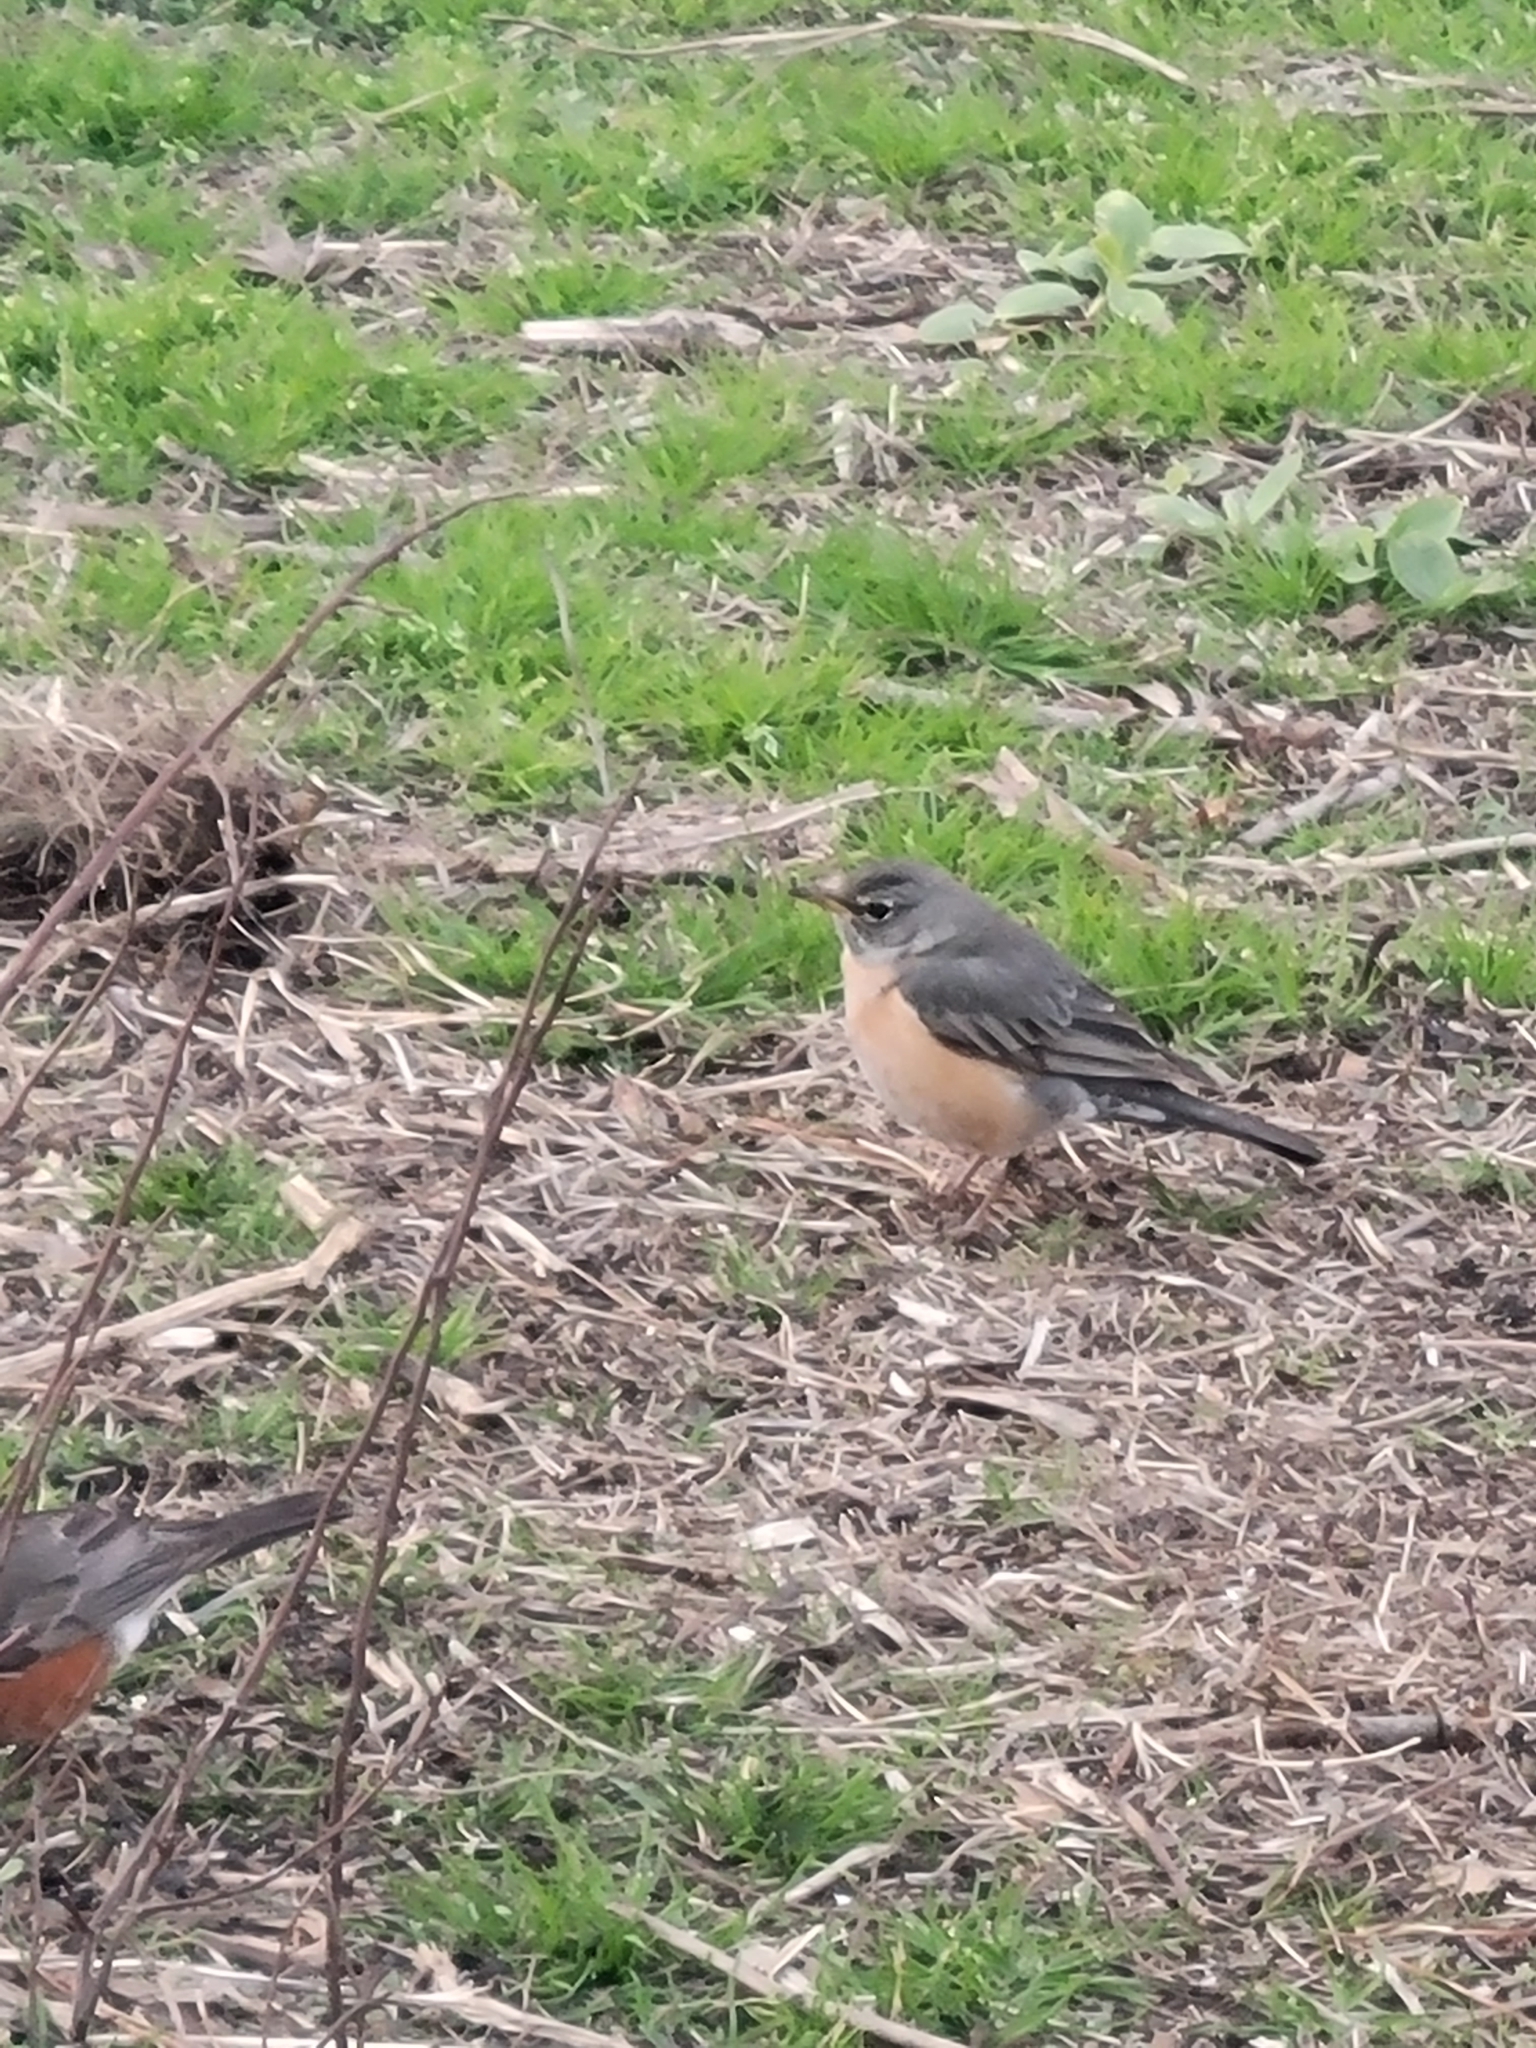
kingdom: Animalia
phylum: Chordata
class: Aves
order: Passeriformes
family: Turdidae
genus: Turdus
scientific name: Turdus migratorius
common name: American robin
